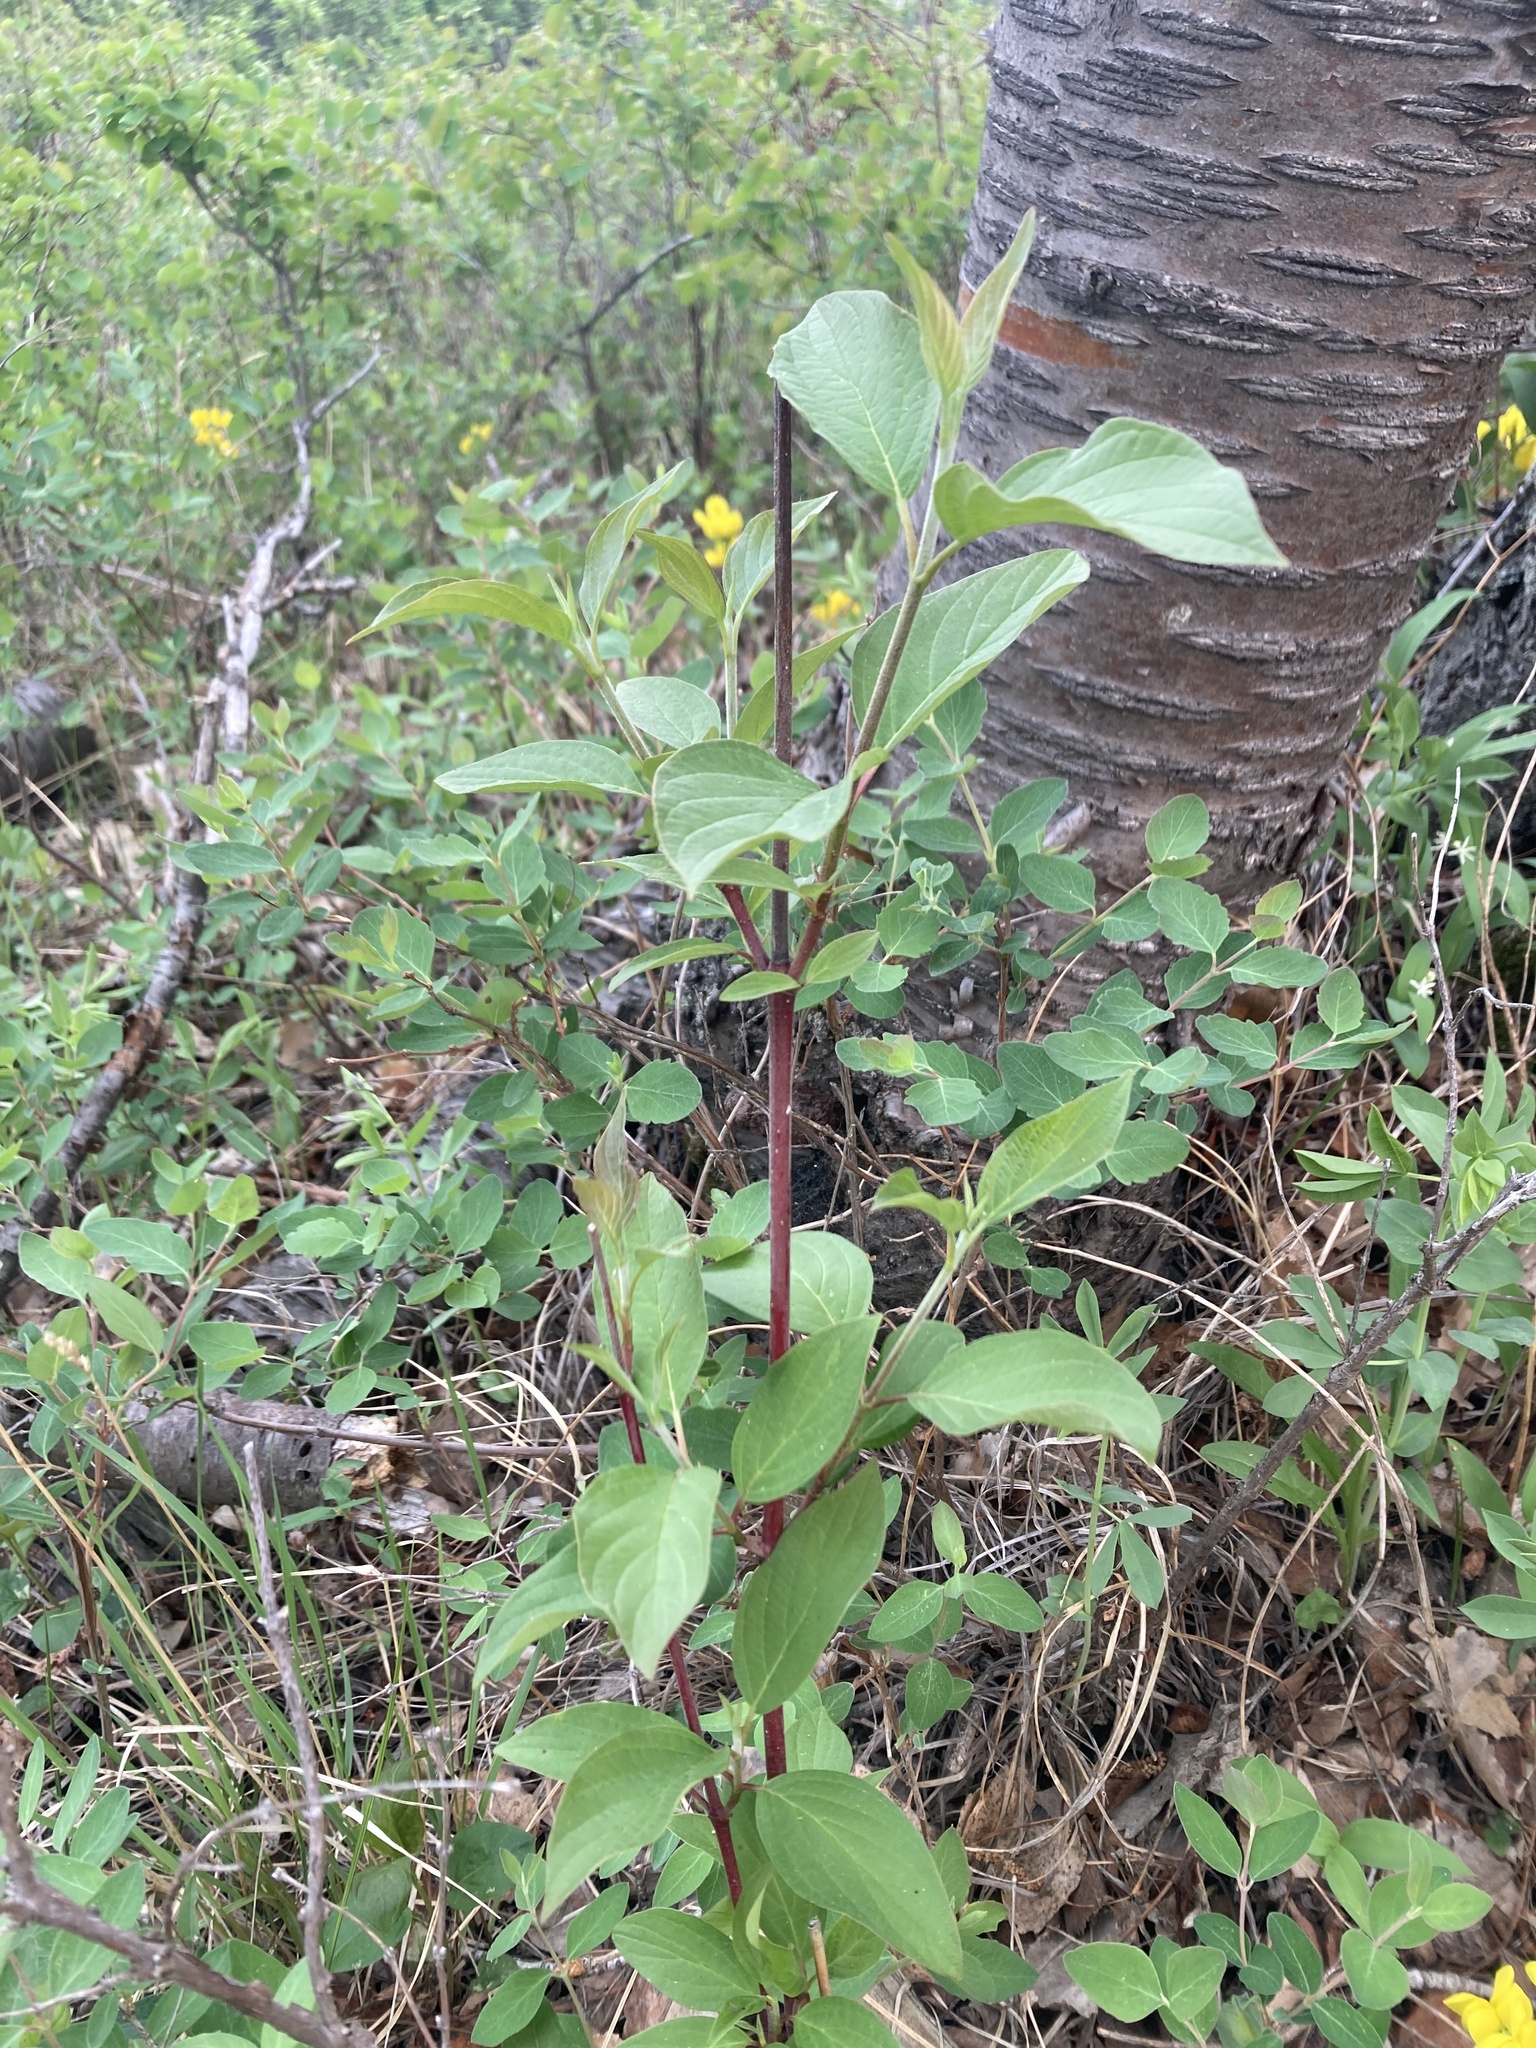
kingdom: Plantae
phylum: Tracheophyta
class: Magnoliopsida
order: Cornales
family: Cornaceae
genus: Cornus
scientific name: Cornus sericea
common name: Red-osier dogwood
